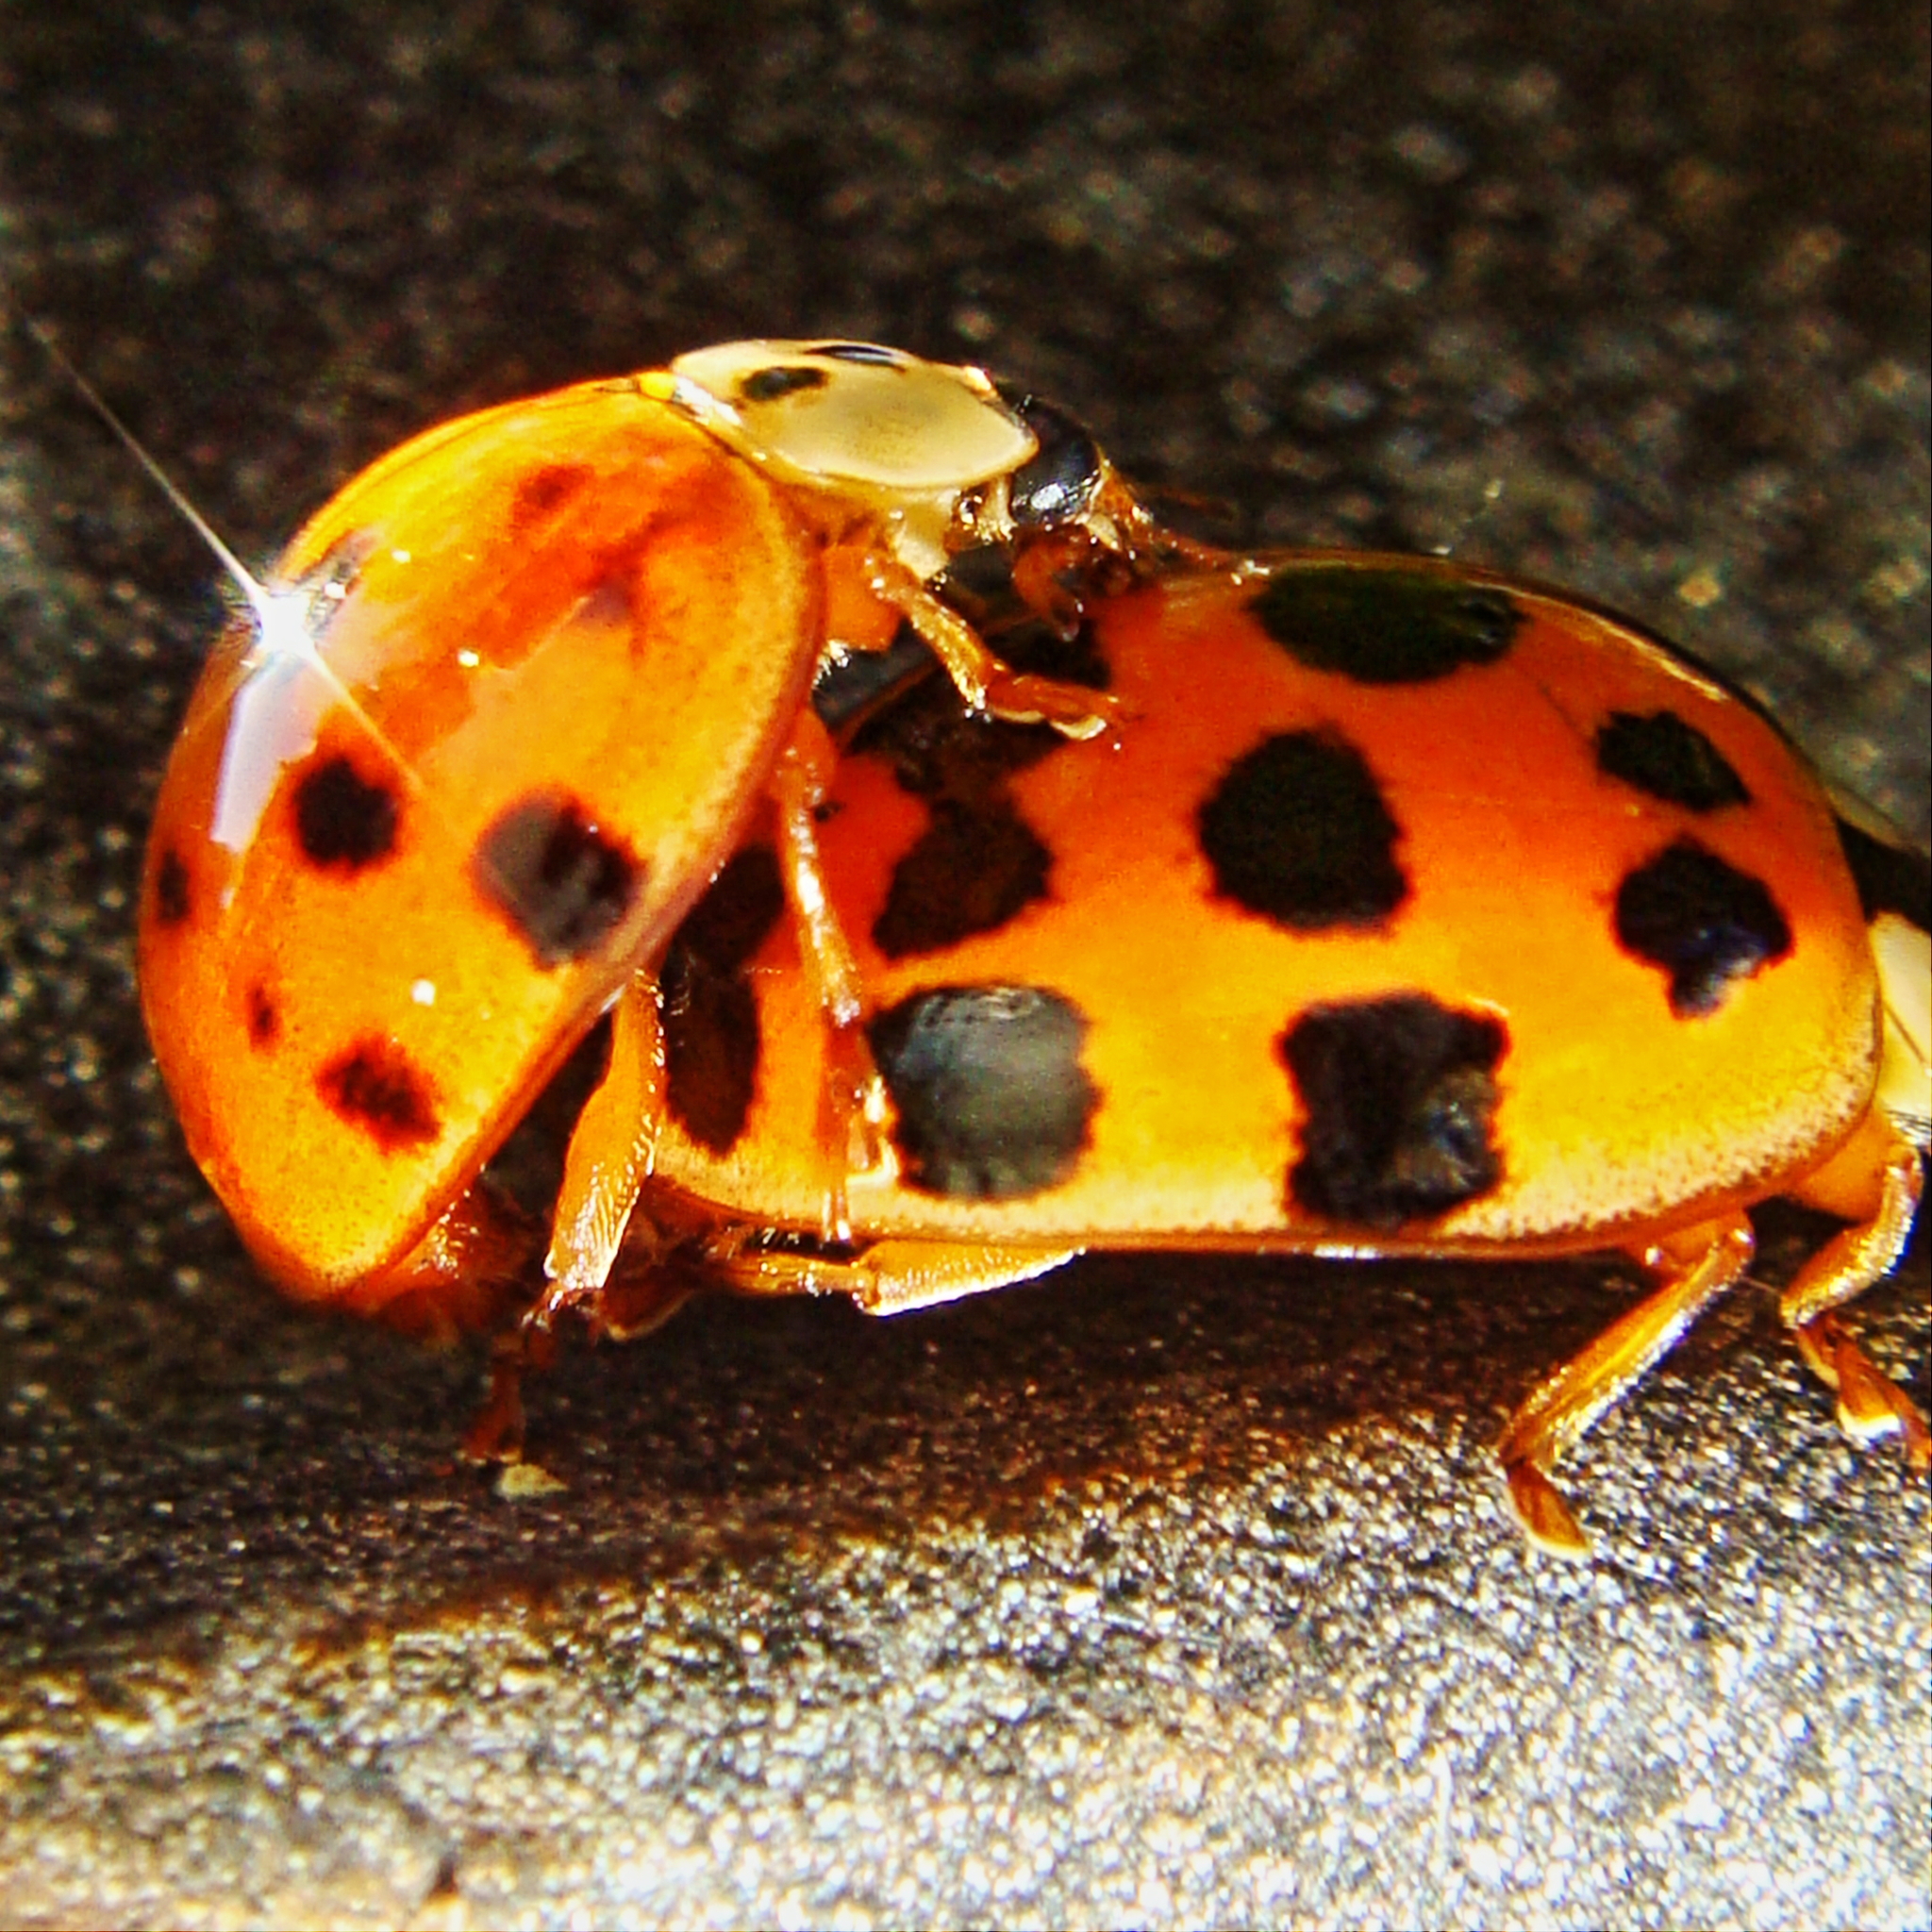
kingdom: Animalia
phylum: Arthropoda
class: Insecta
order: Coleoptera
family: Coccinellidae
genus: Harmonia
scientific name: Harmonia axyridis
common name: Harlequin ladybird
